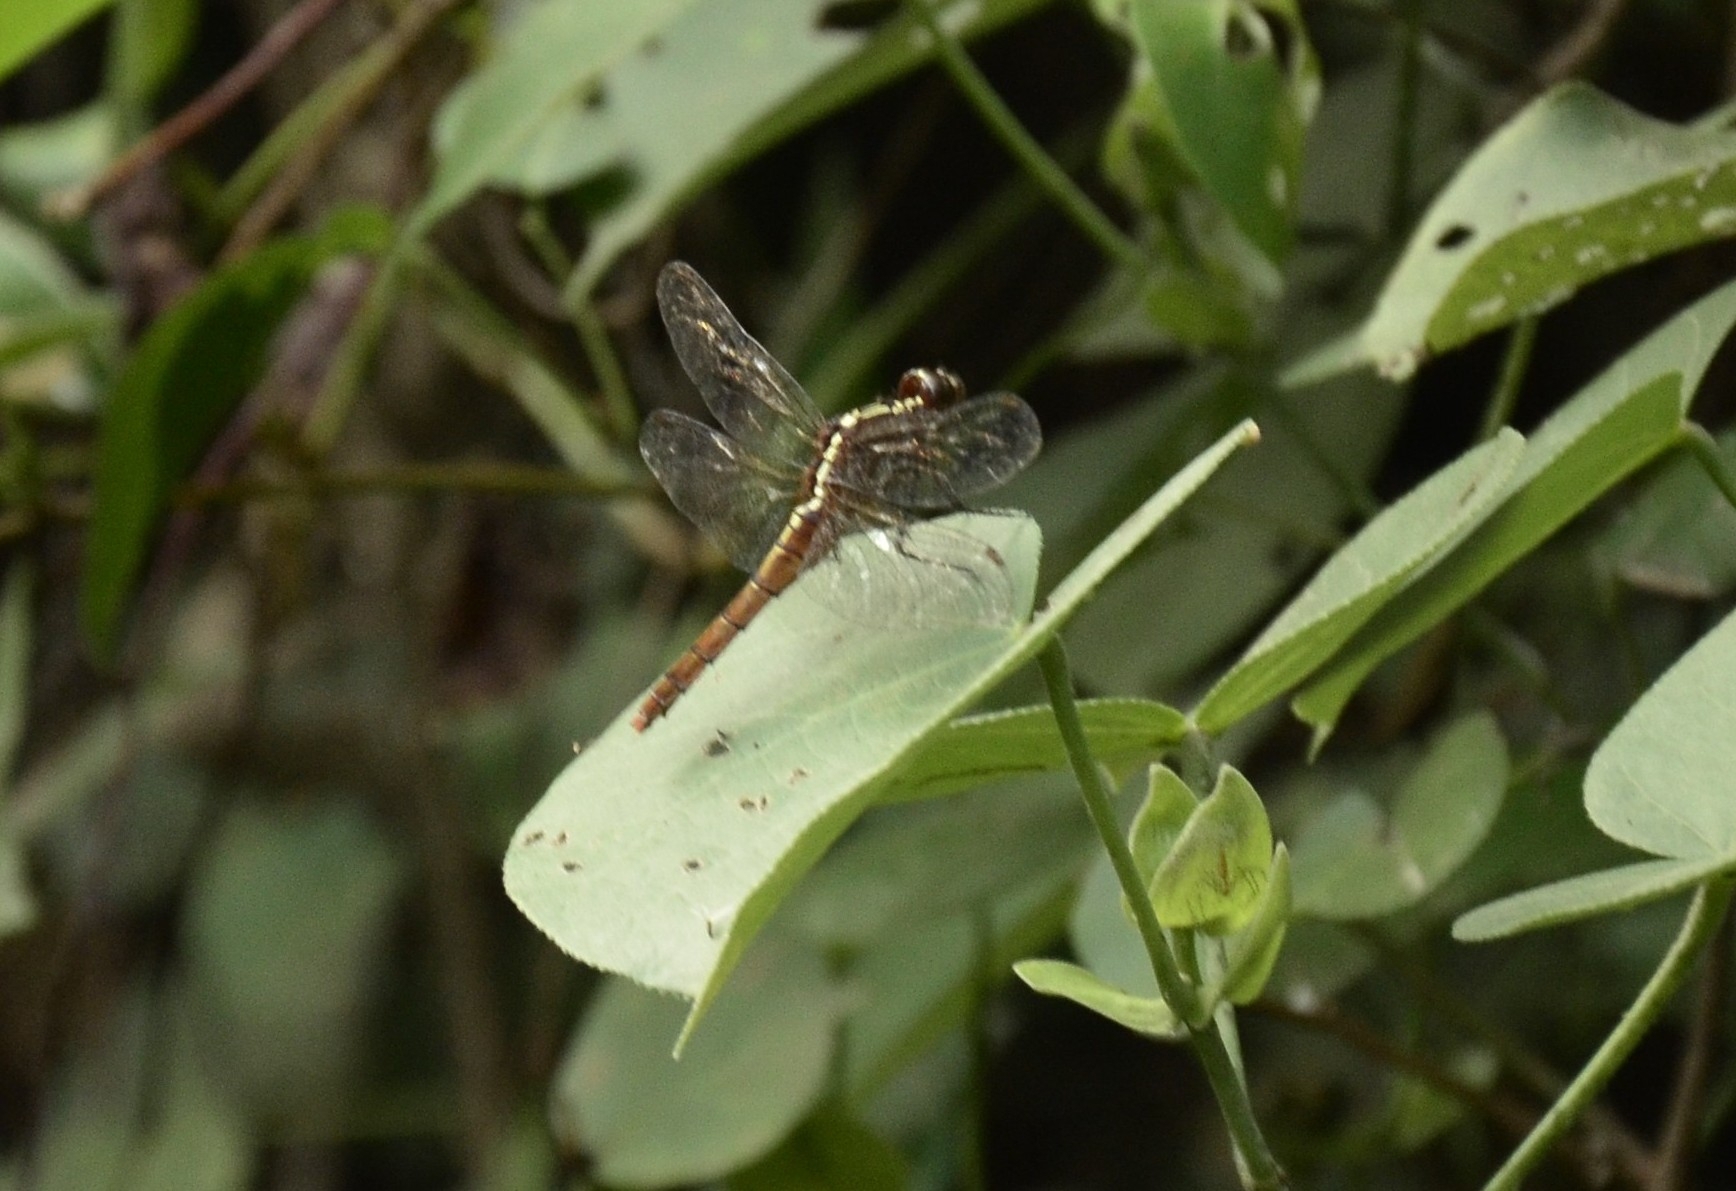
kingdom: Animalia
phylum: Arthropoda
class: Insecta
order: Odonata
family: Libellulidae
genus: Rhodothemis
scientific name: Rhodothemis rufa
